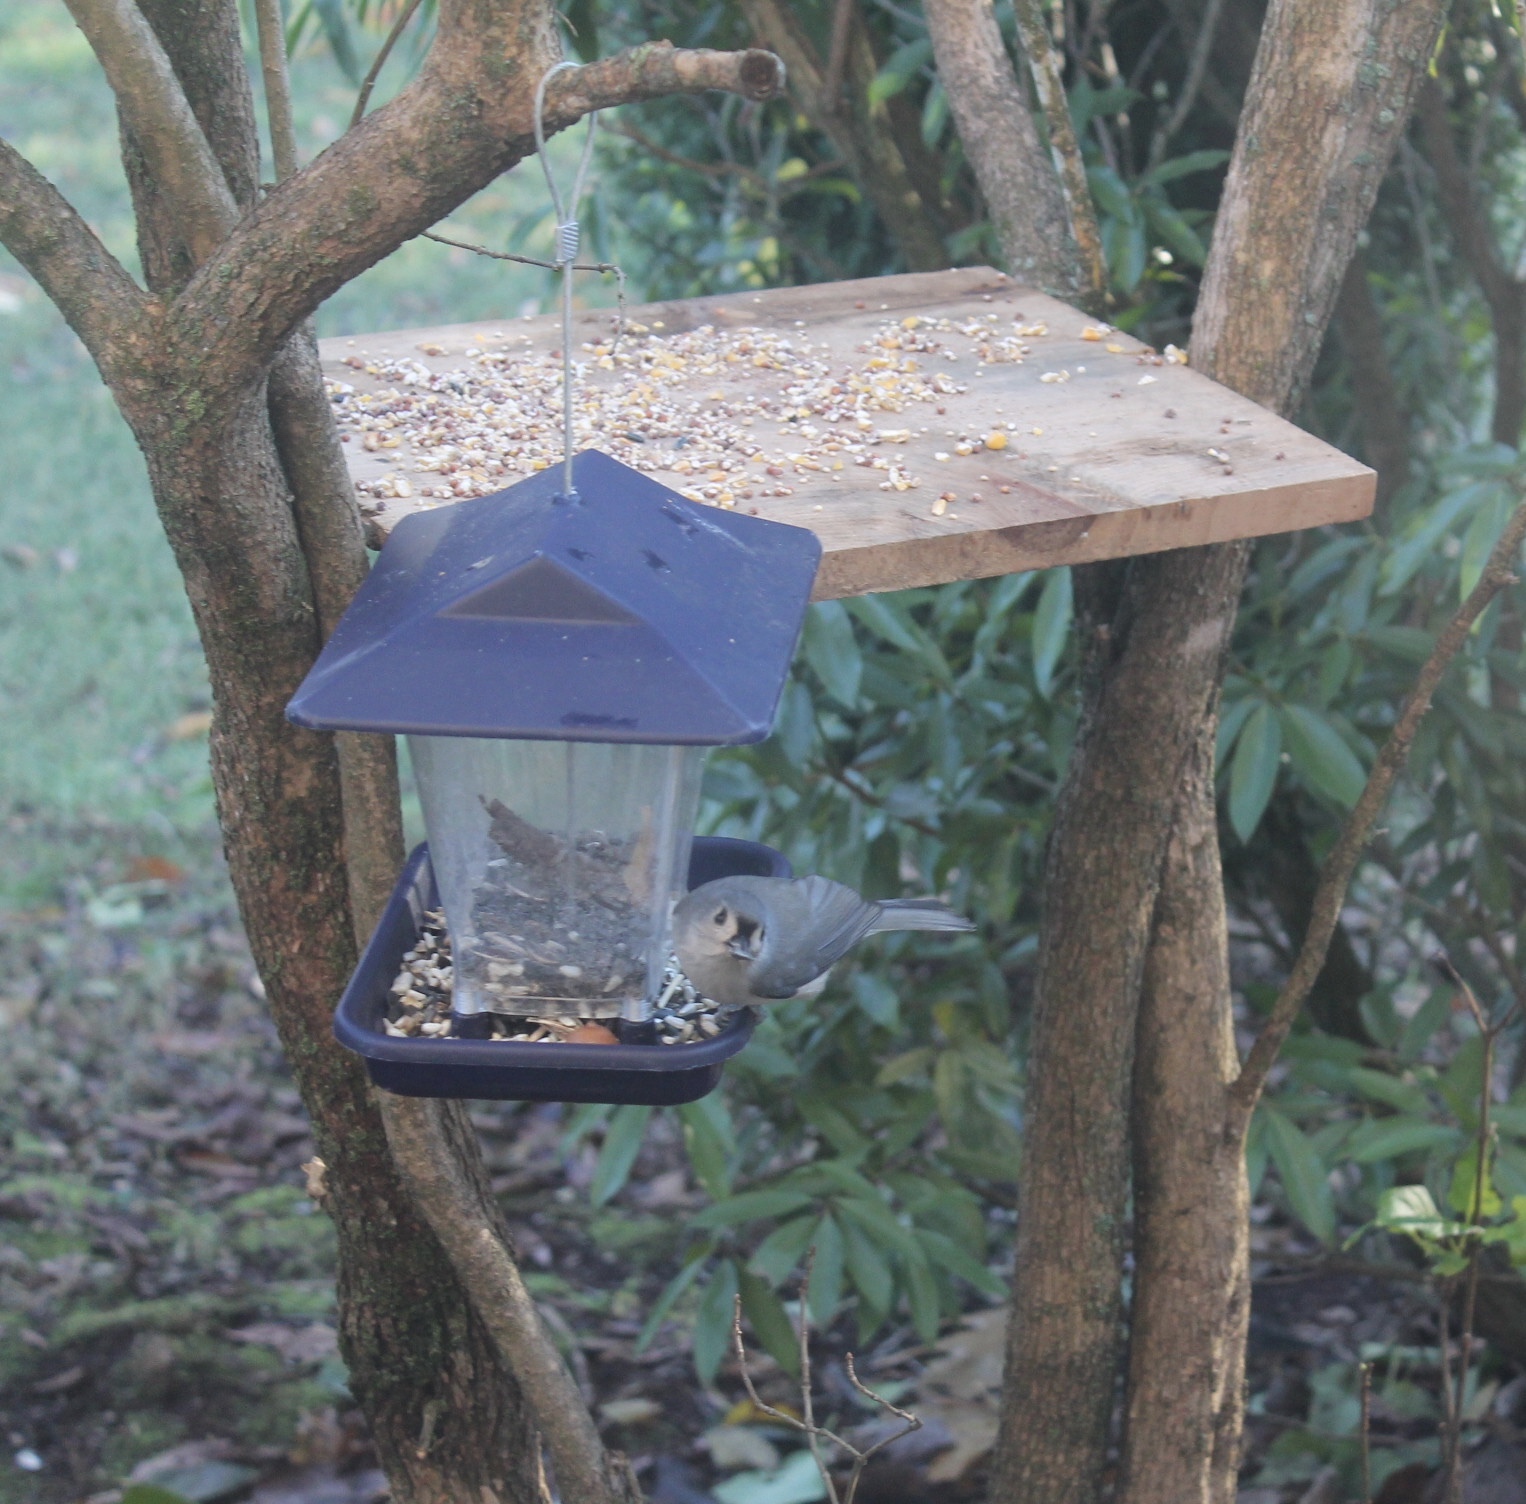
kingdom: Animalia
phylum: Chordata
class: Aves
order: Passeriformes
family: Paridae
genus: Baeolophus
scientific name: Baeolophus bicolor
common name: Tufted titmouse
